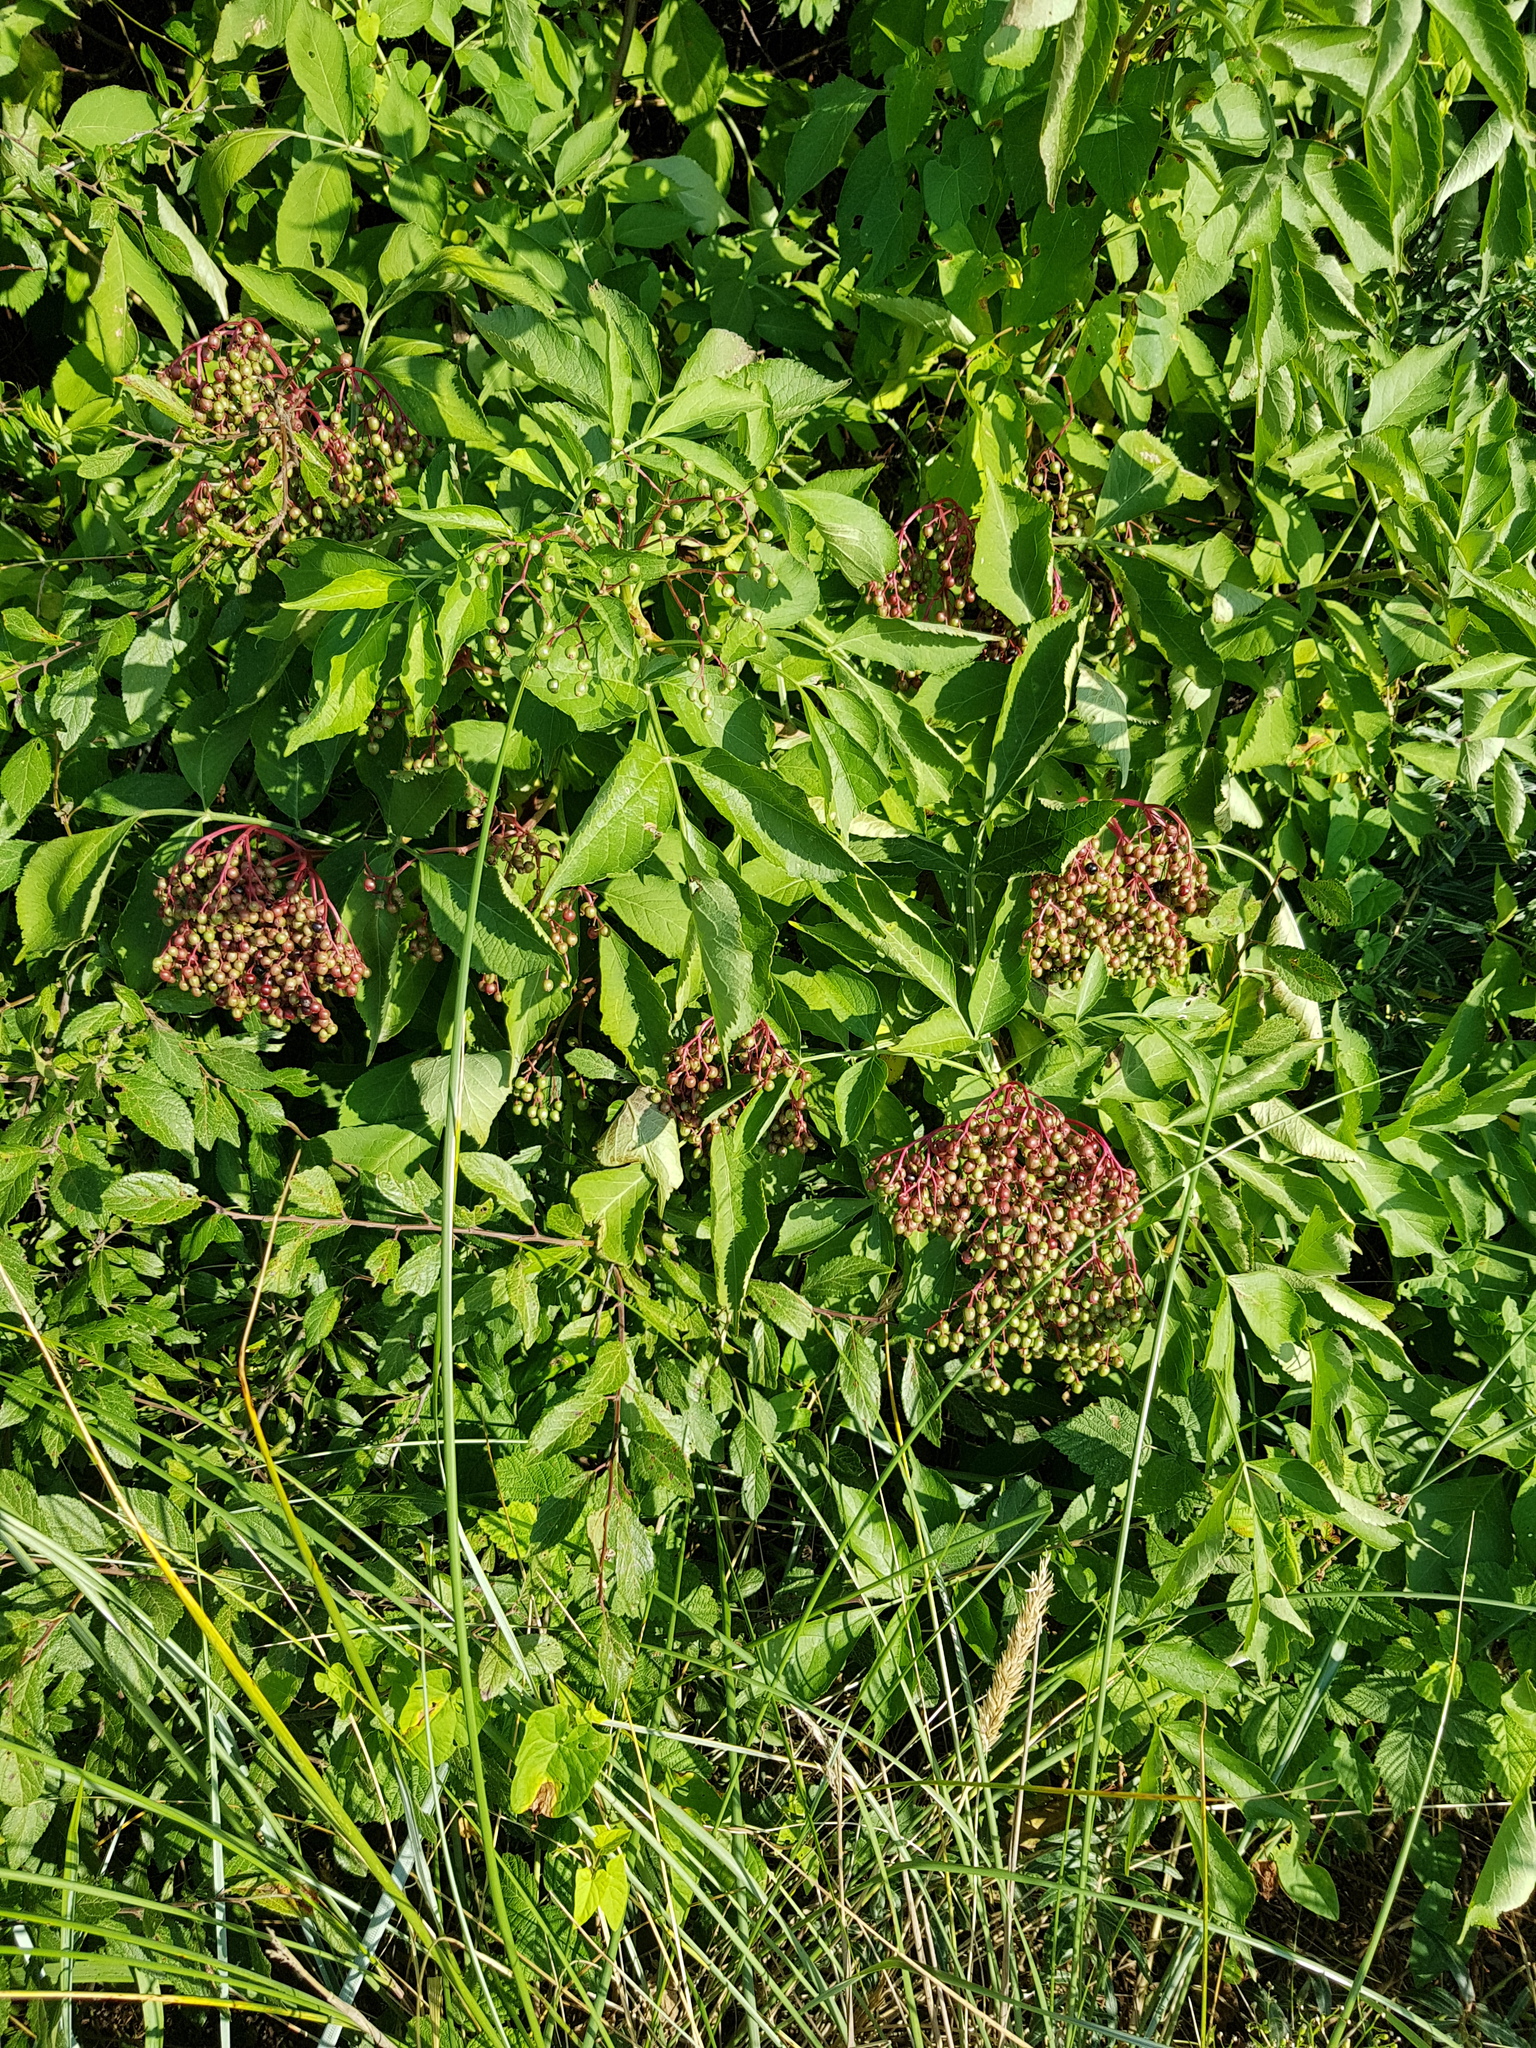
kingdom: Plantae
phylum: Tracheophyta
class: Magnoliopsida
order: Dipsacales
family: Viburnaceae
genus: Sambucus
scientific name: Sambucus nigra
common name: Elder
